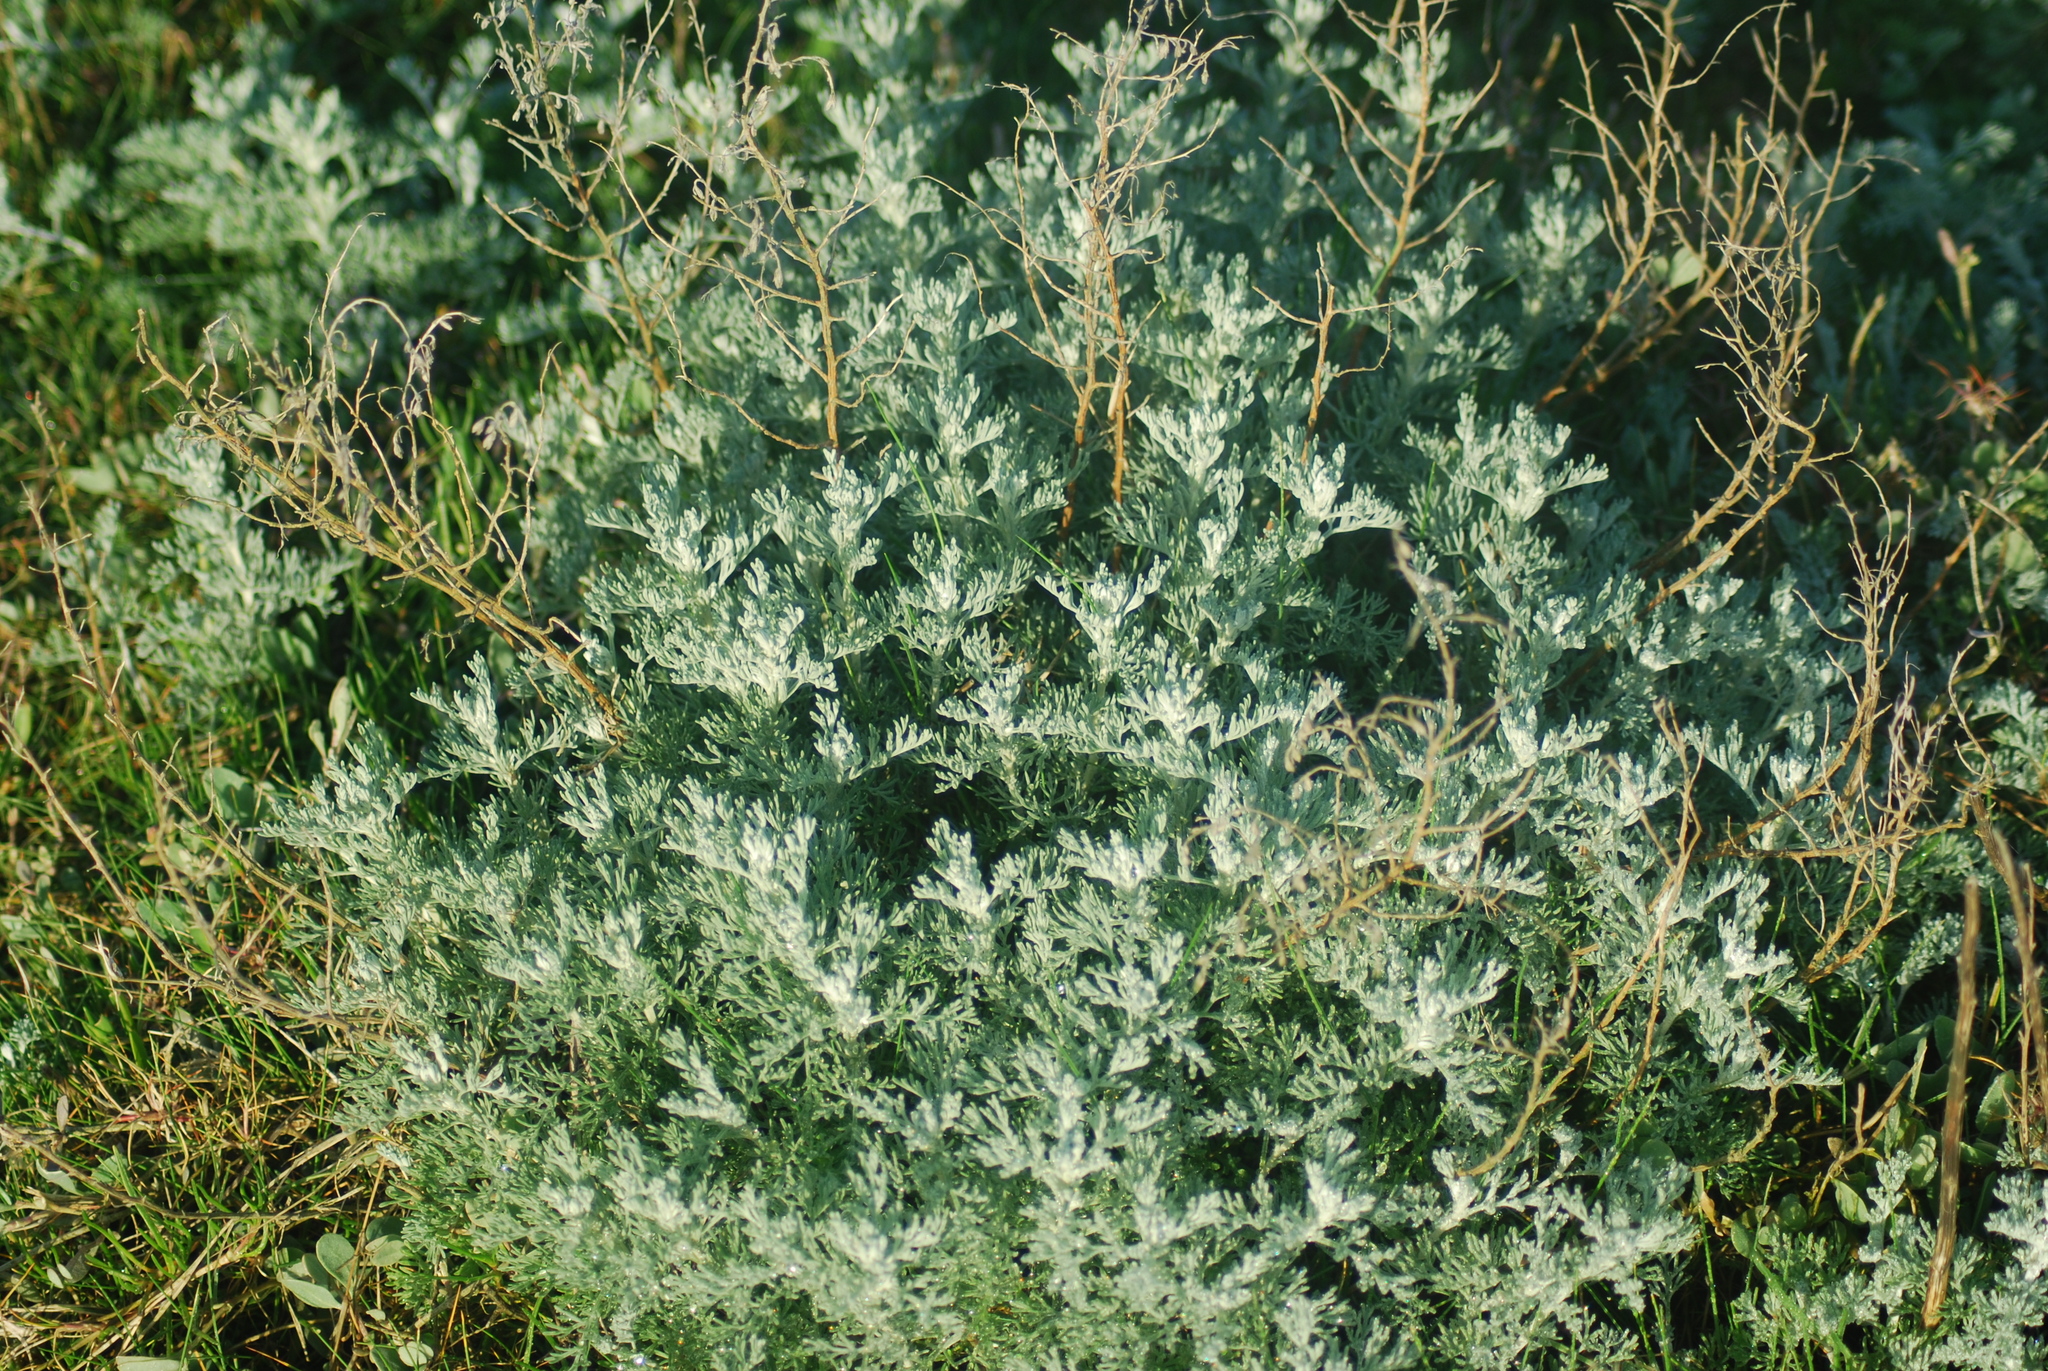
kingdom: Plantae
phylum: Tracheophyta
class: Magnoliopsida
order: Asterales
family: Asteraceae
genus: Artemisia
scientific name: Artemisia maritima
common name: Wormseed
